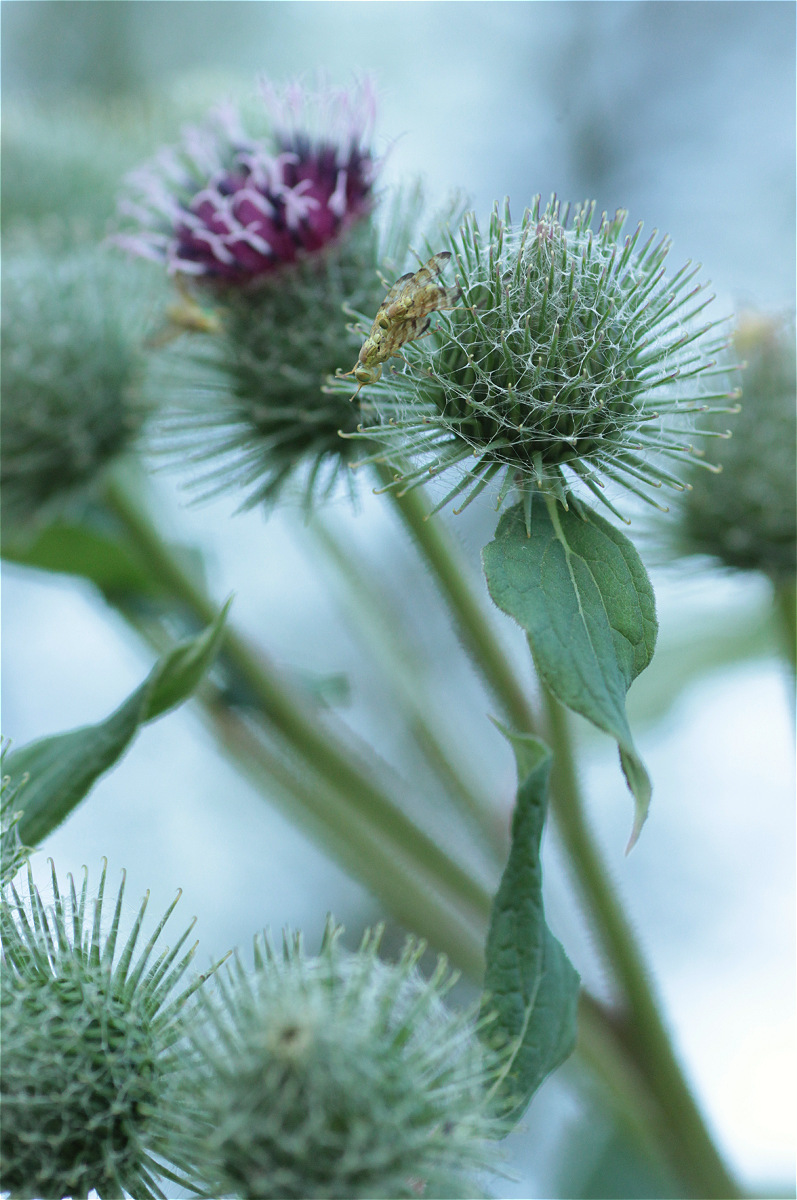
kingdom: Plantae
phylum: Tracheophyta
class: Magnoliopsida
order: Asterales
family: Asteraceae
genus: Arctium
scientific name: Arctium tomentosum
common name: Woolly burdock
